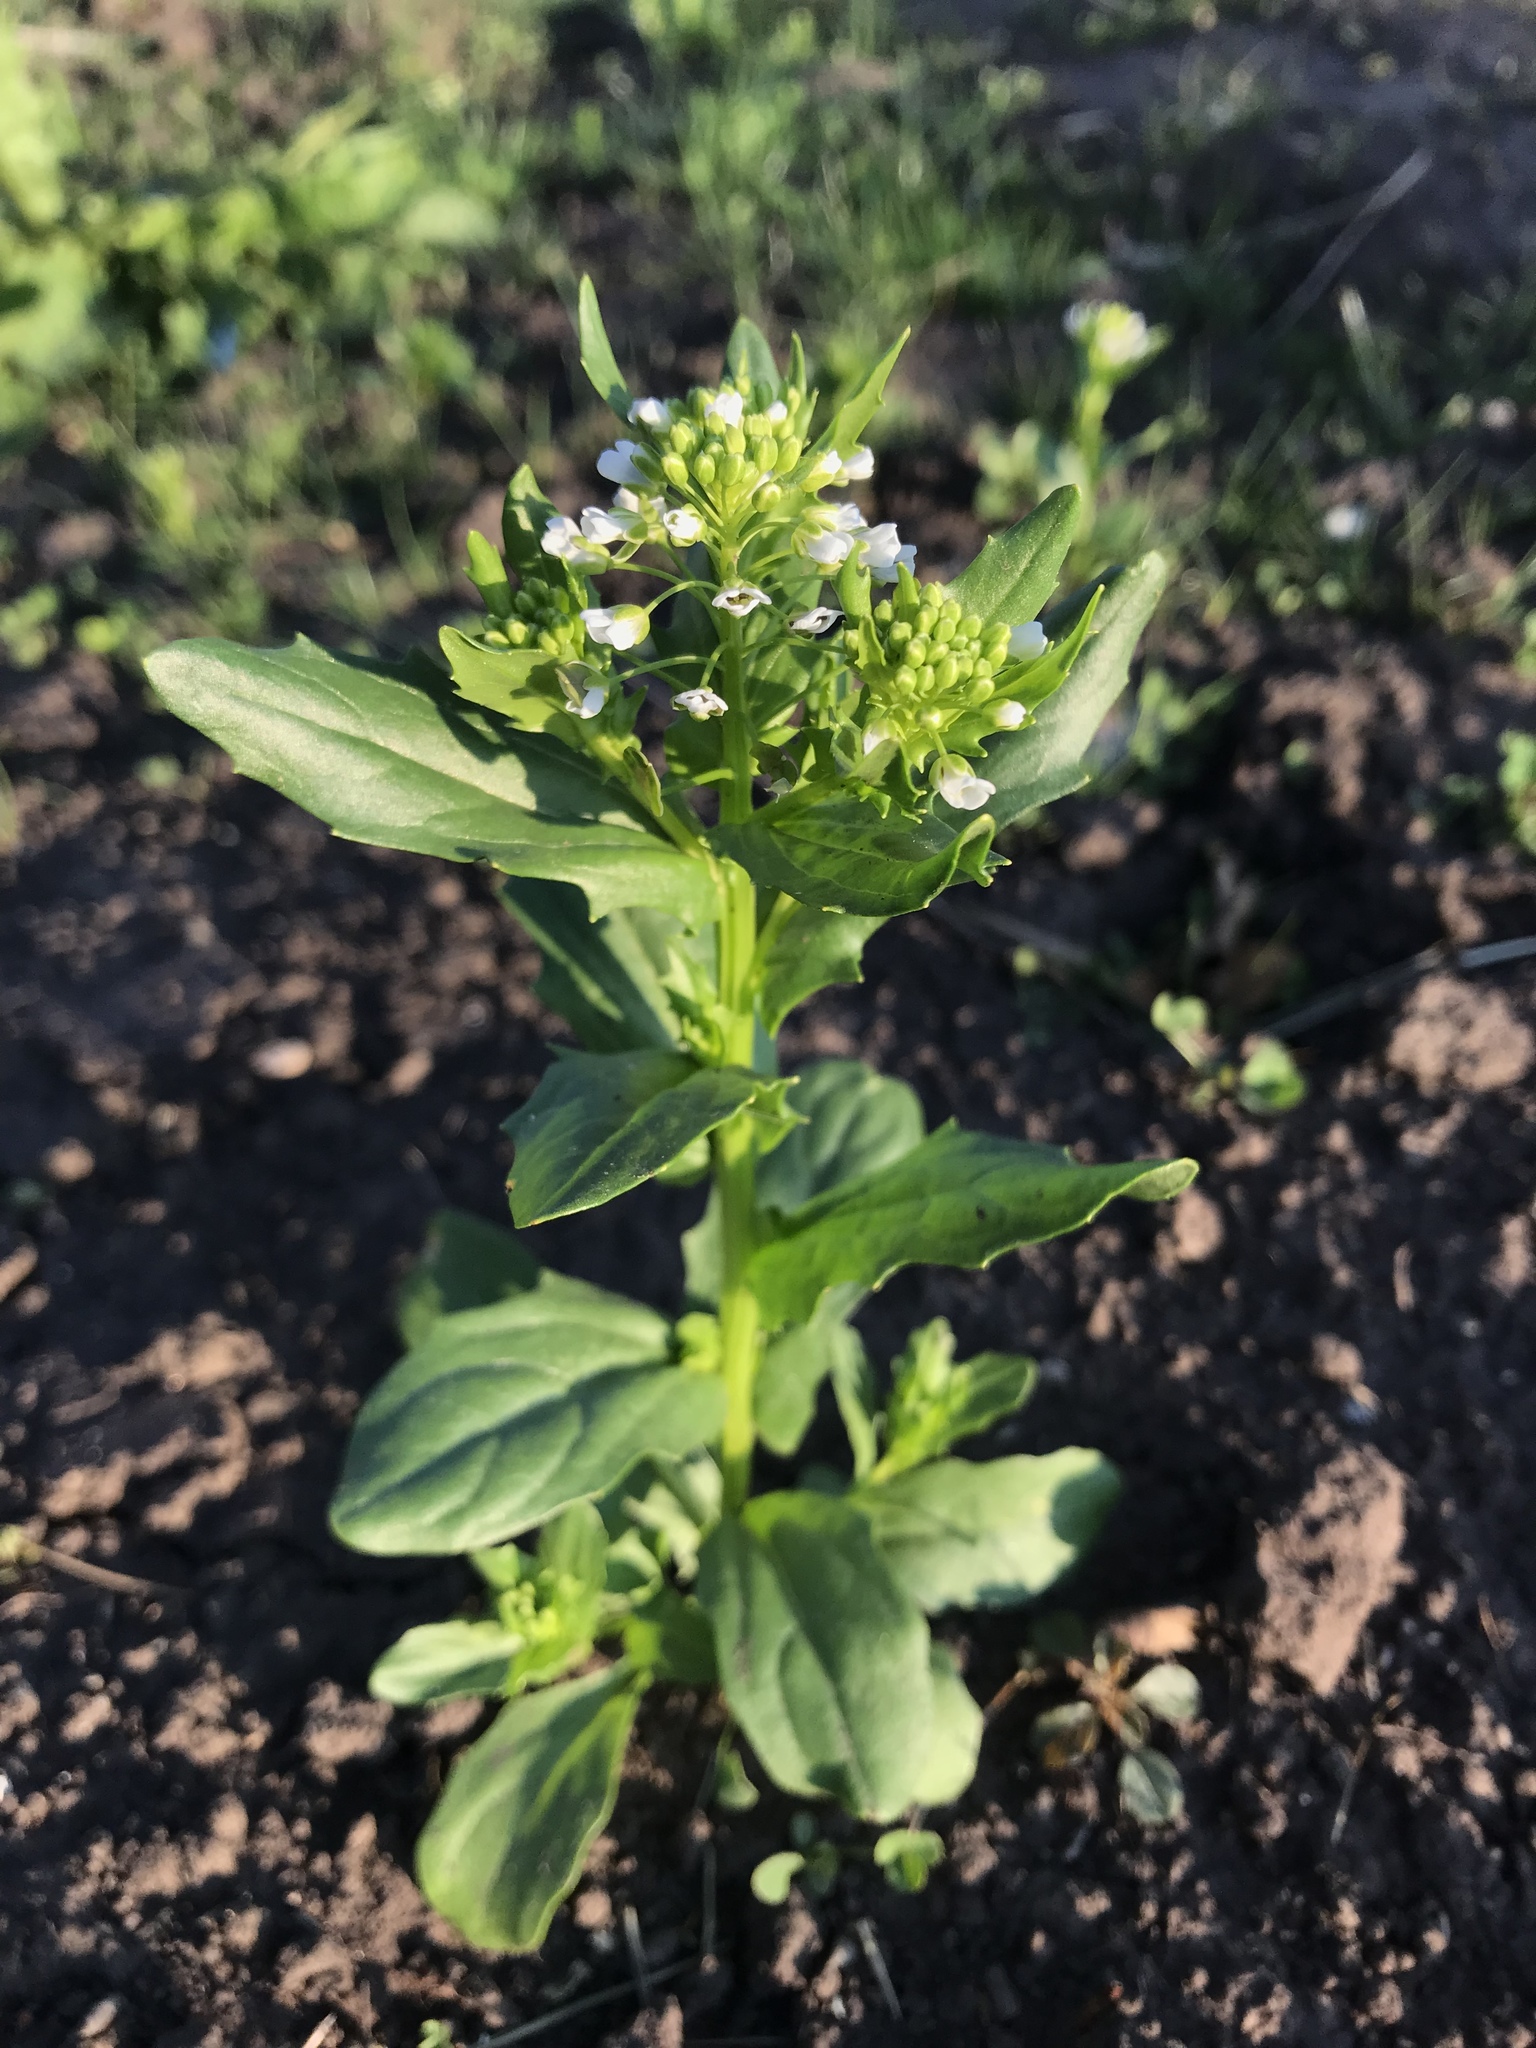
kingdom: Plantae
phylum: Tracheophyta
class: Magnoliopsida
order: Brassicales
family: Brassicaceae
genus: Thlaspi
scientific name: Thlaspi arvense
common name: Field pennycress
